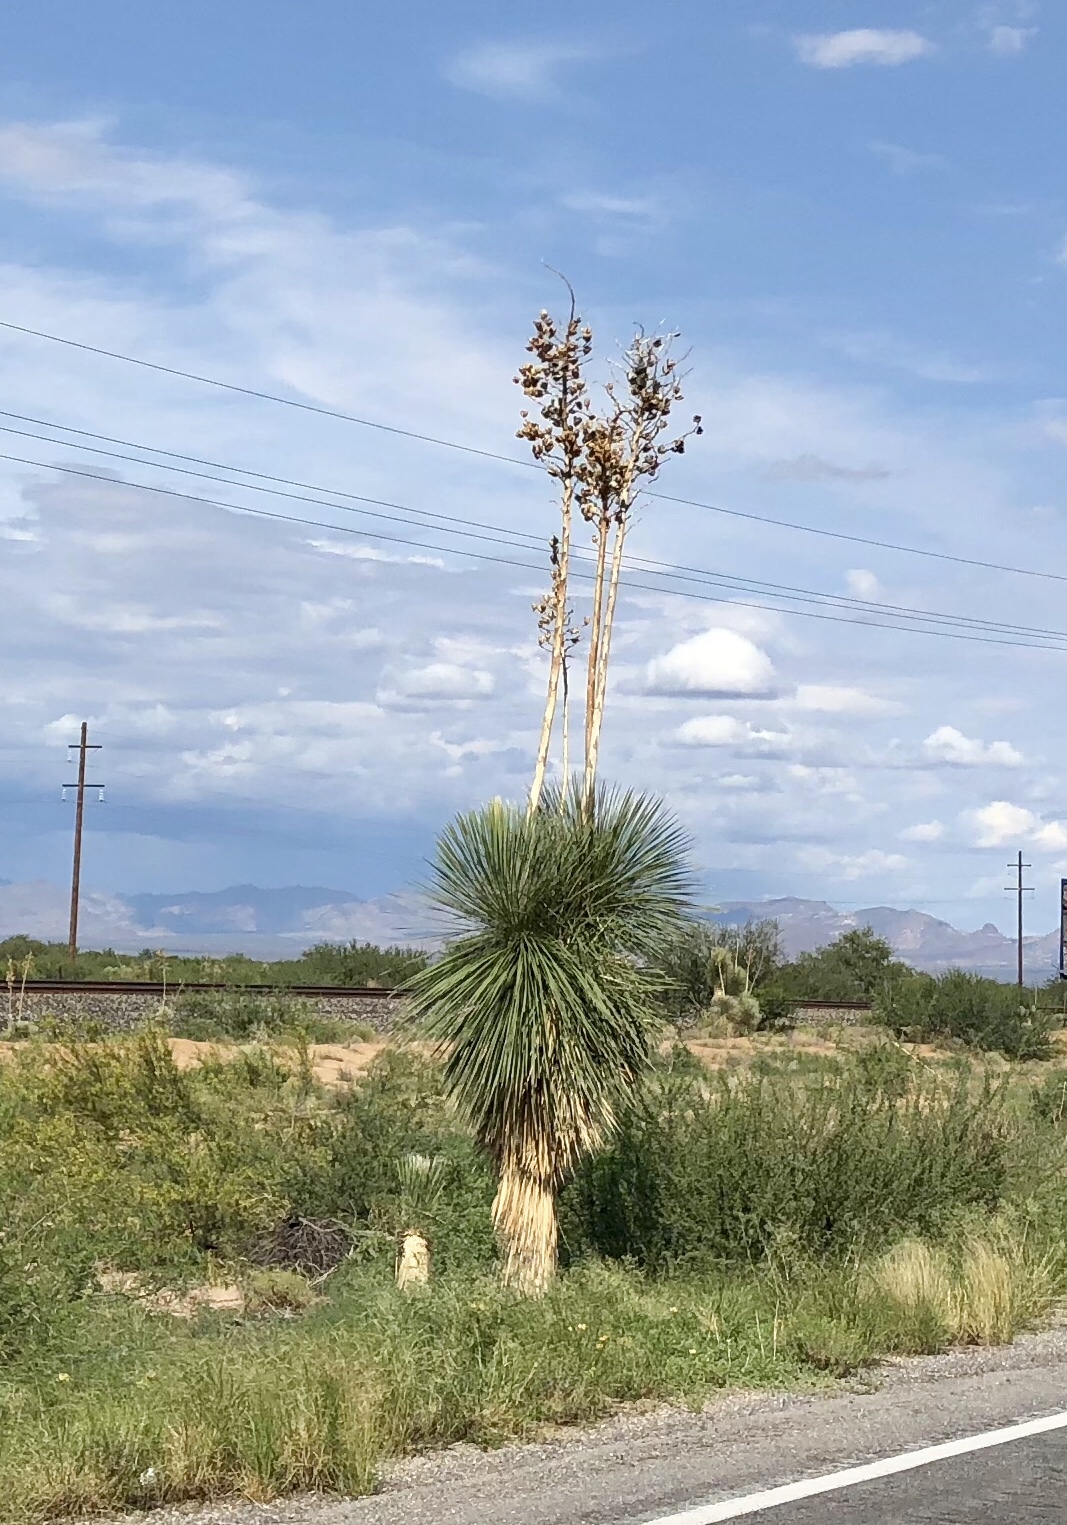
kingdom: Plantae
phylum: Tracheophyta
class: Liliopsida
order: Asparagales
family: Asparagaceae
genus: Yucca
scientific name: Yucca elata
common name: Palmella
